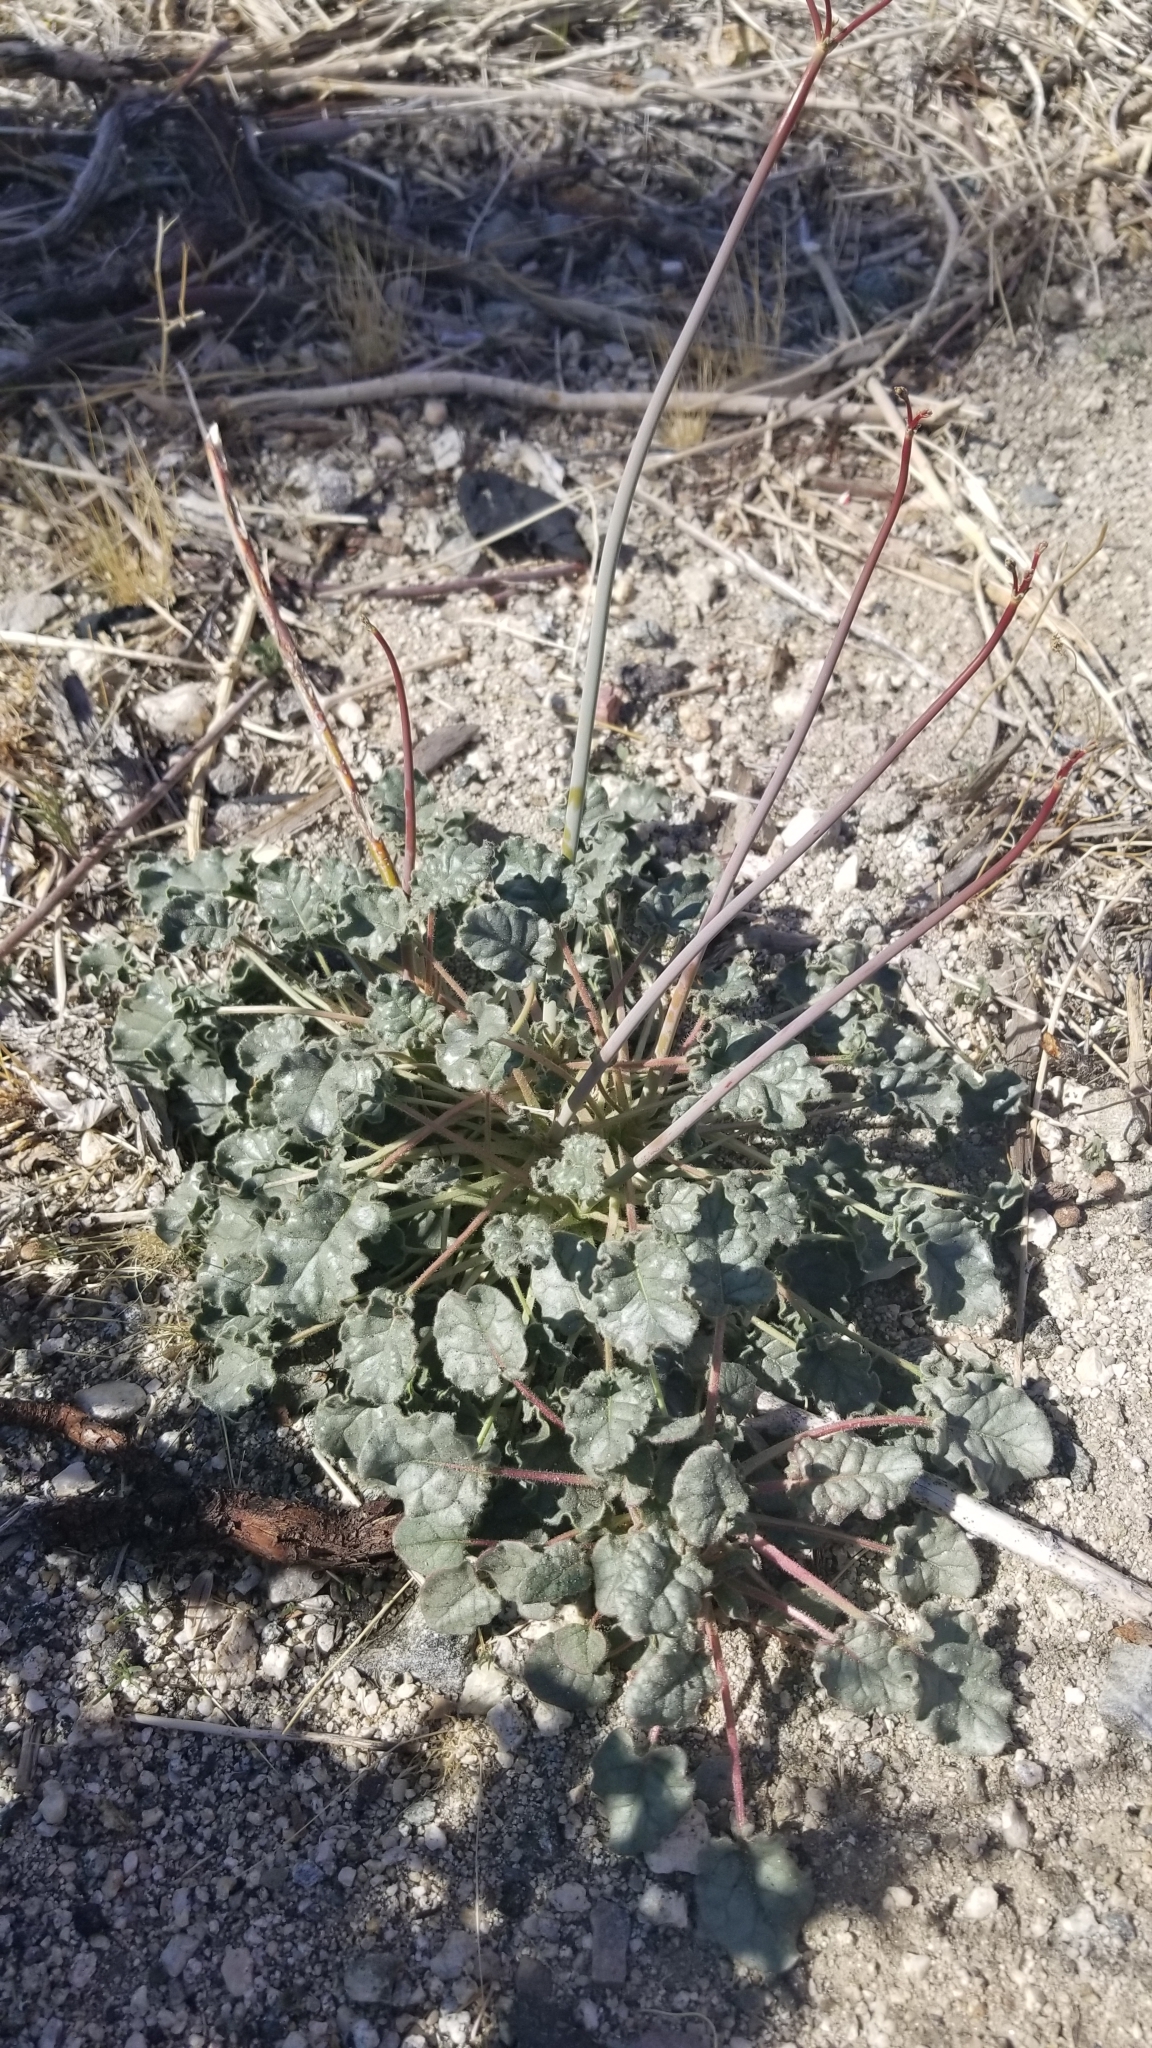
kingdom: Plantae
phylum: Tracheophyta
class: Magnoliopsida
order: Caryophyllales
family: Polygonaceae
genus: Eriogonum
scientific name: Eriogonum inflatum
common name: Desert trumpet
